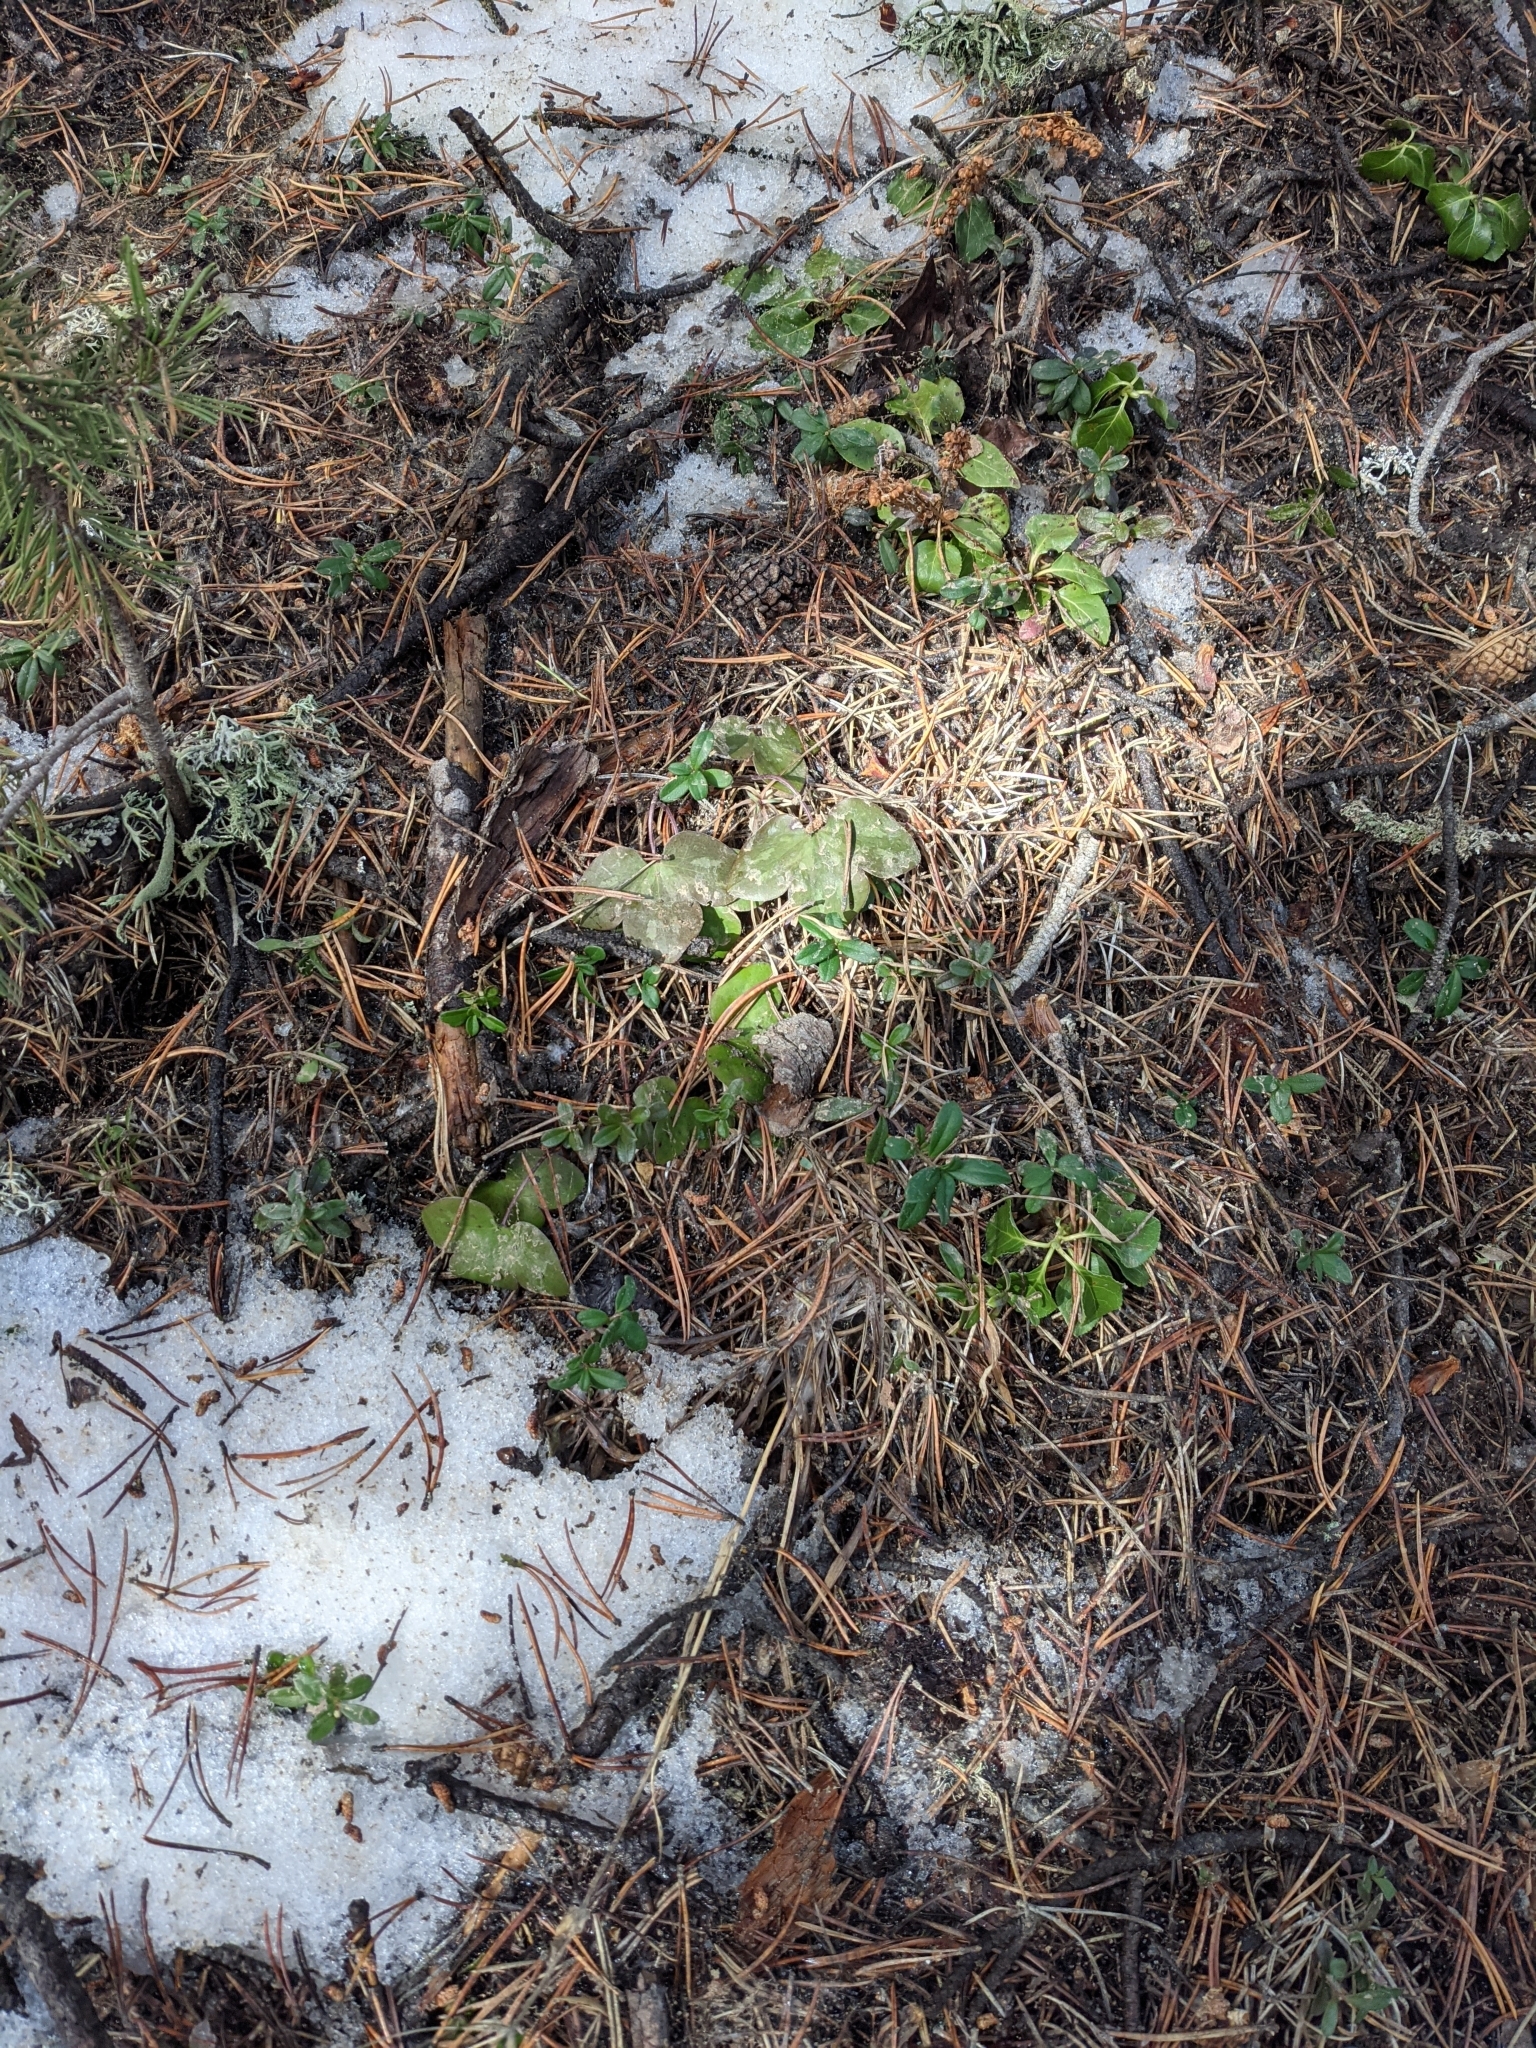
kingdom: Plantae
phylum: Tracheophyta
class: Magnoliopsida
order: Ranunculales
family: Ranunculaceae
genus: Hepatica
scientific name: Hepatica nobilis
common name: Liverleaf
